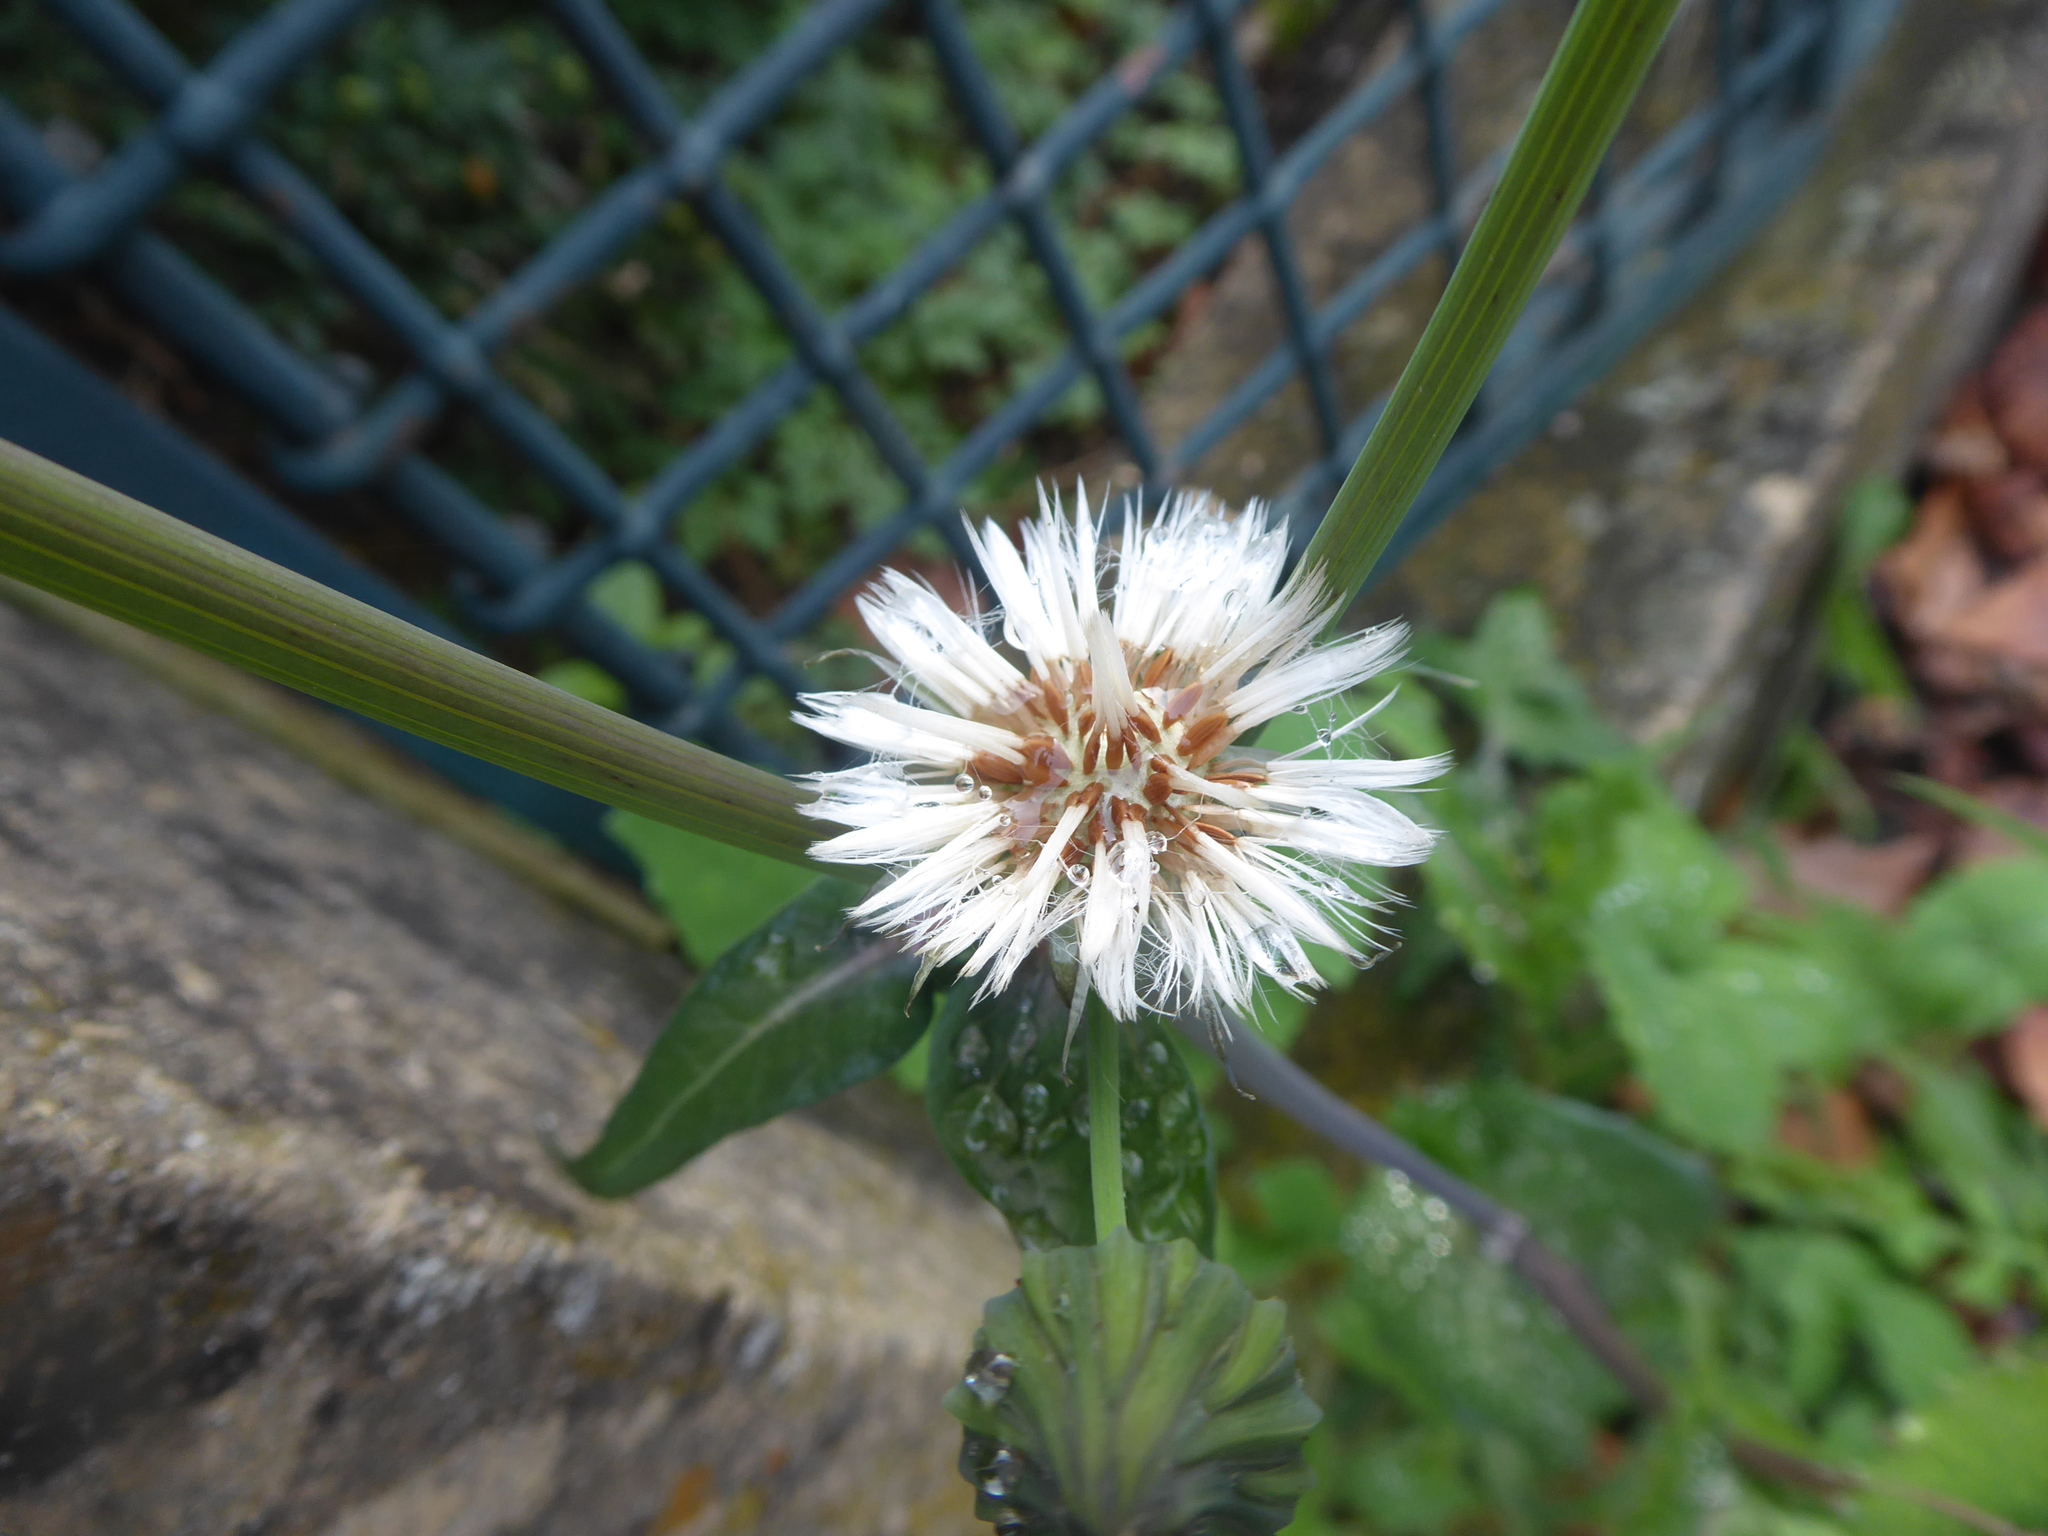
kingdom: Plantae
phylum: Tracheophyta
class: Magnoliopsida
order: Asterales
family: Asteraceae
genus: Sonchus
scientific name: Sonchus oleraceus
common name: Common sowthistle
